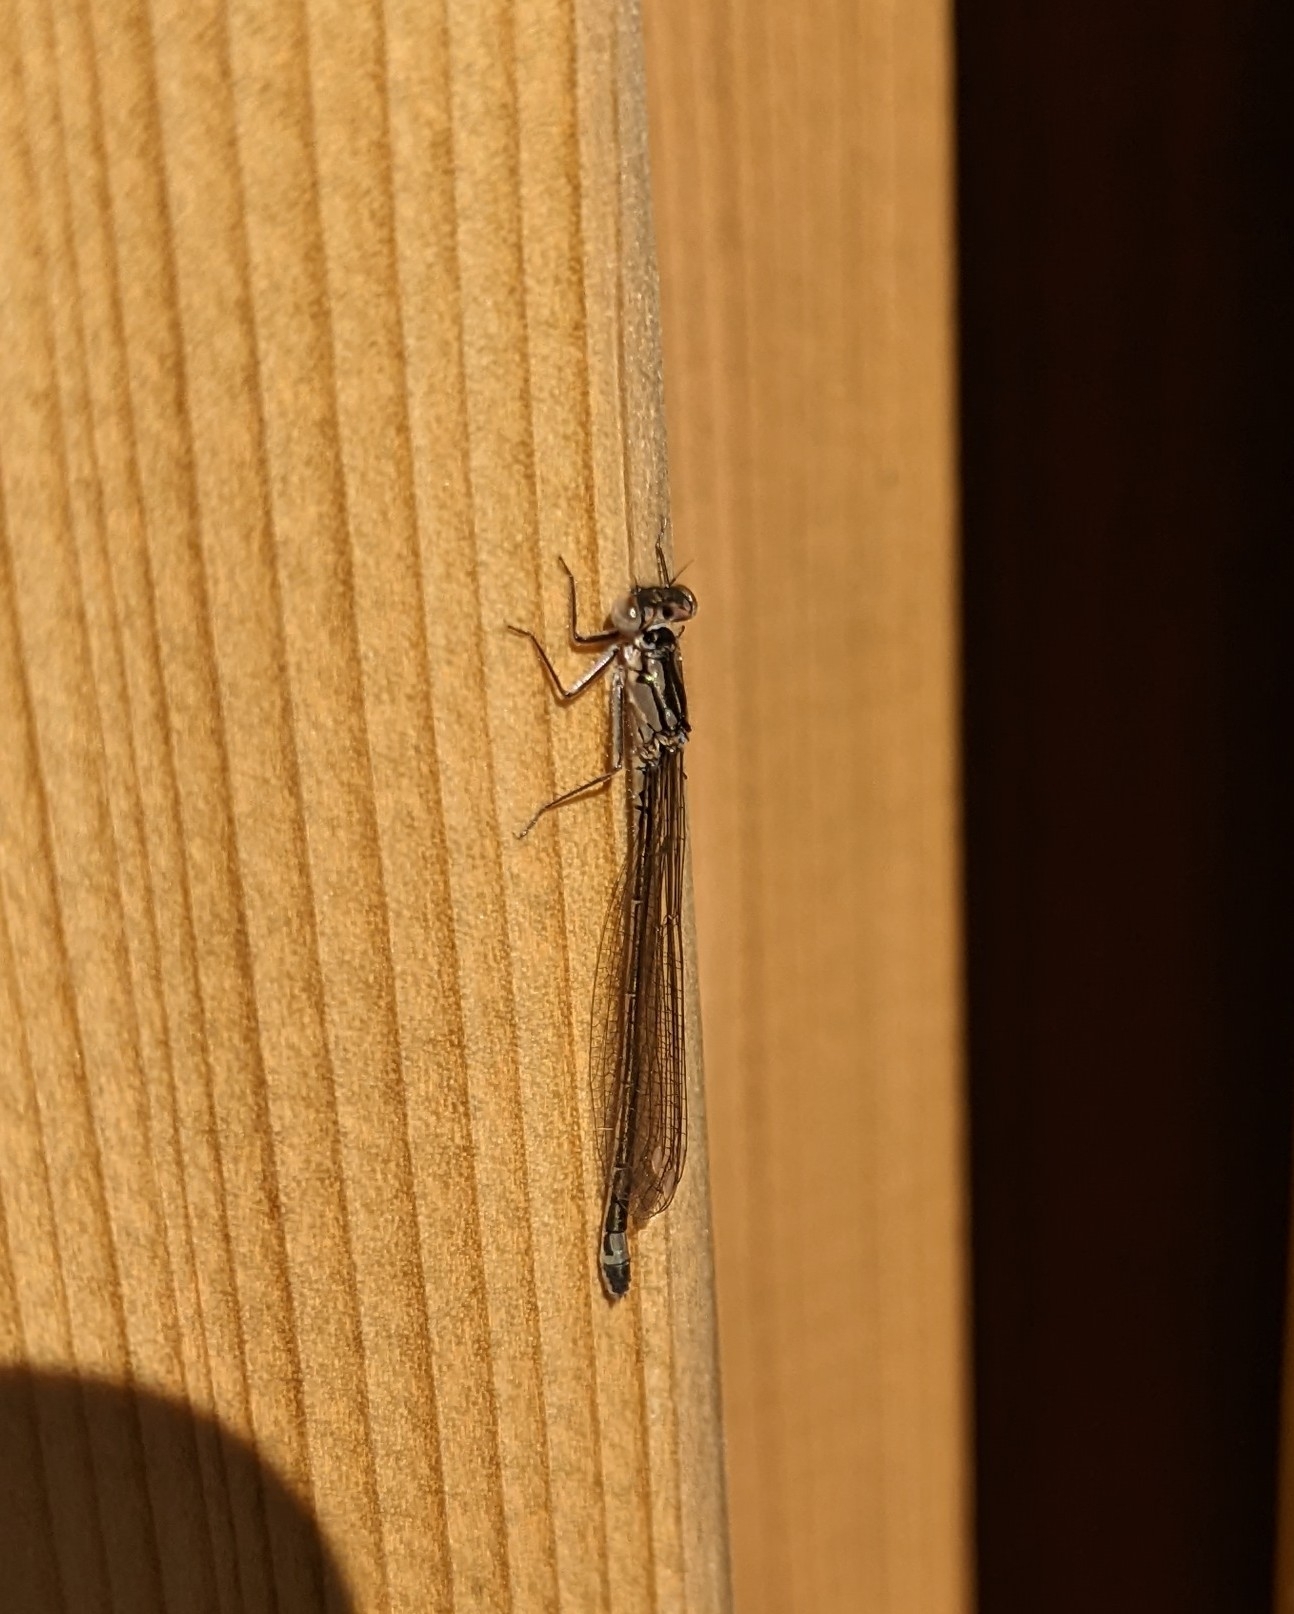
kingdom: Animalia
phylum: Arthropoda
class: Insecta
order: Odonata
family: Coenagrionidae
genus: Ischnura
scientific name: Ischnura cervula
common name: Pacific forktail
